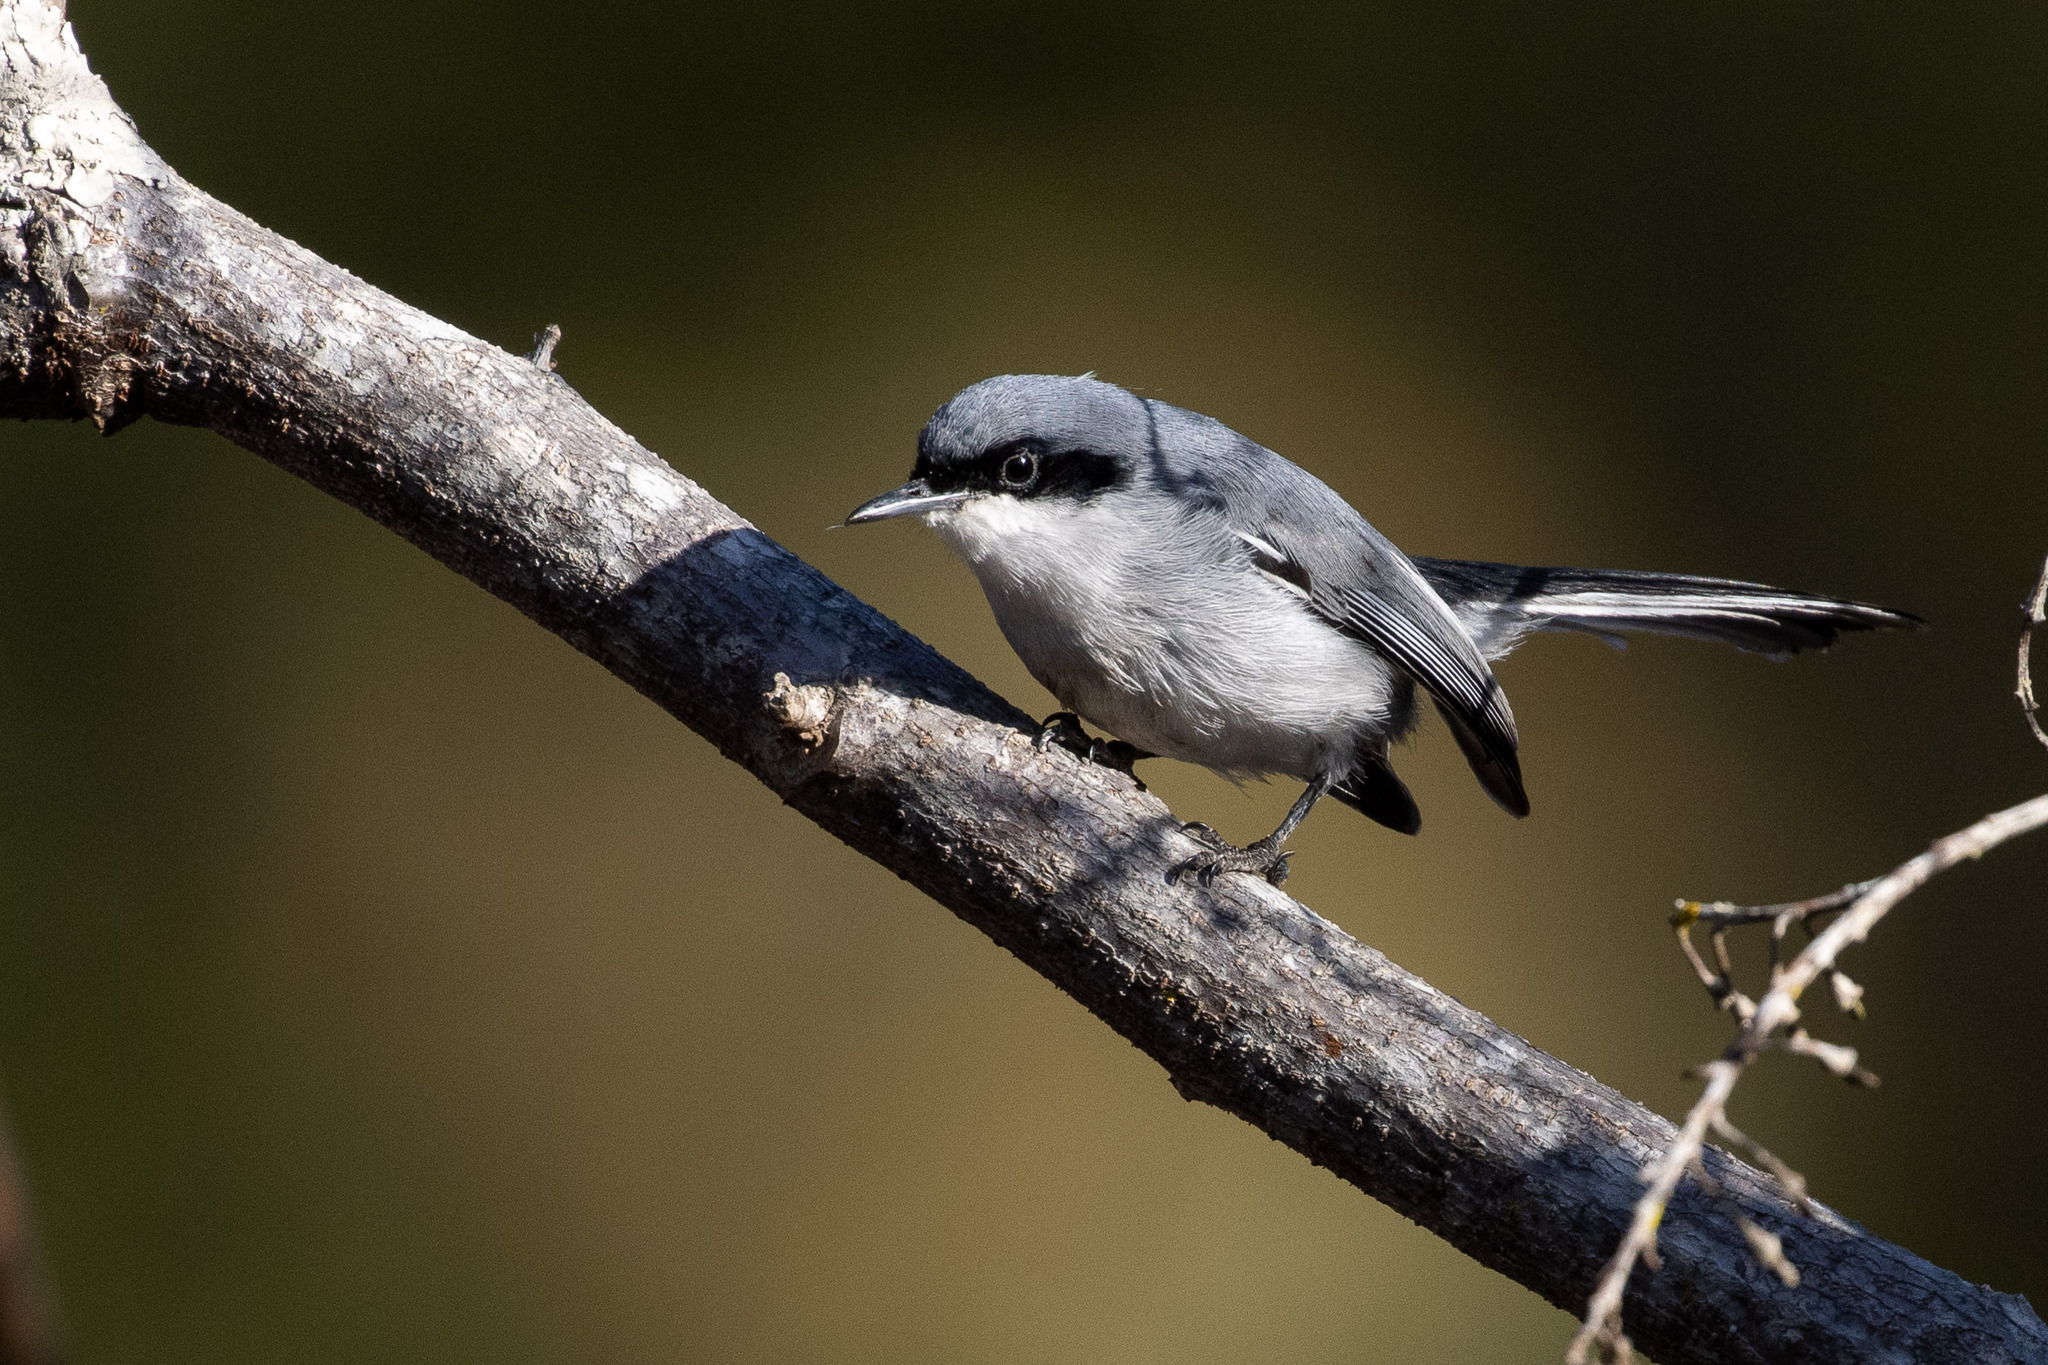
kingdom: Animalia
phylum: Chordata
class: Aves
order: Passeriformes
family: Polioptilidae
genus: Polioptila
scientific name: Polioptila dumicola
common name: Masked gnatcatcher
